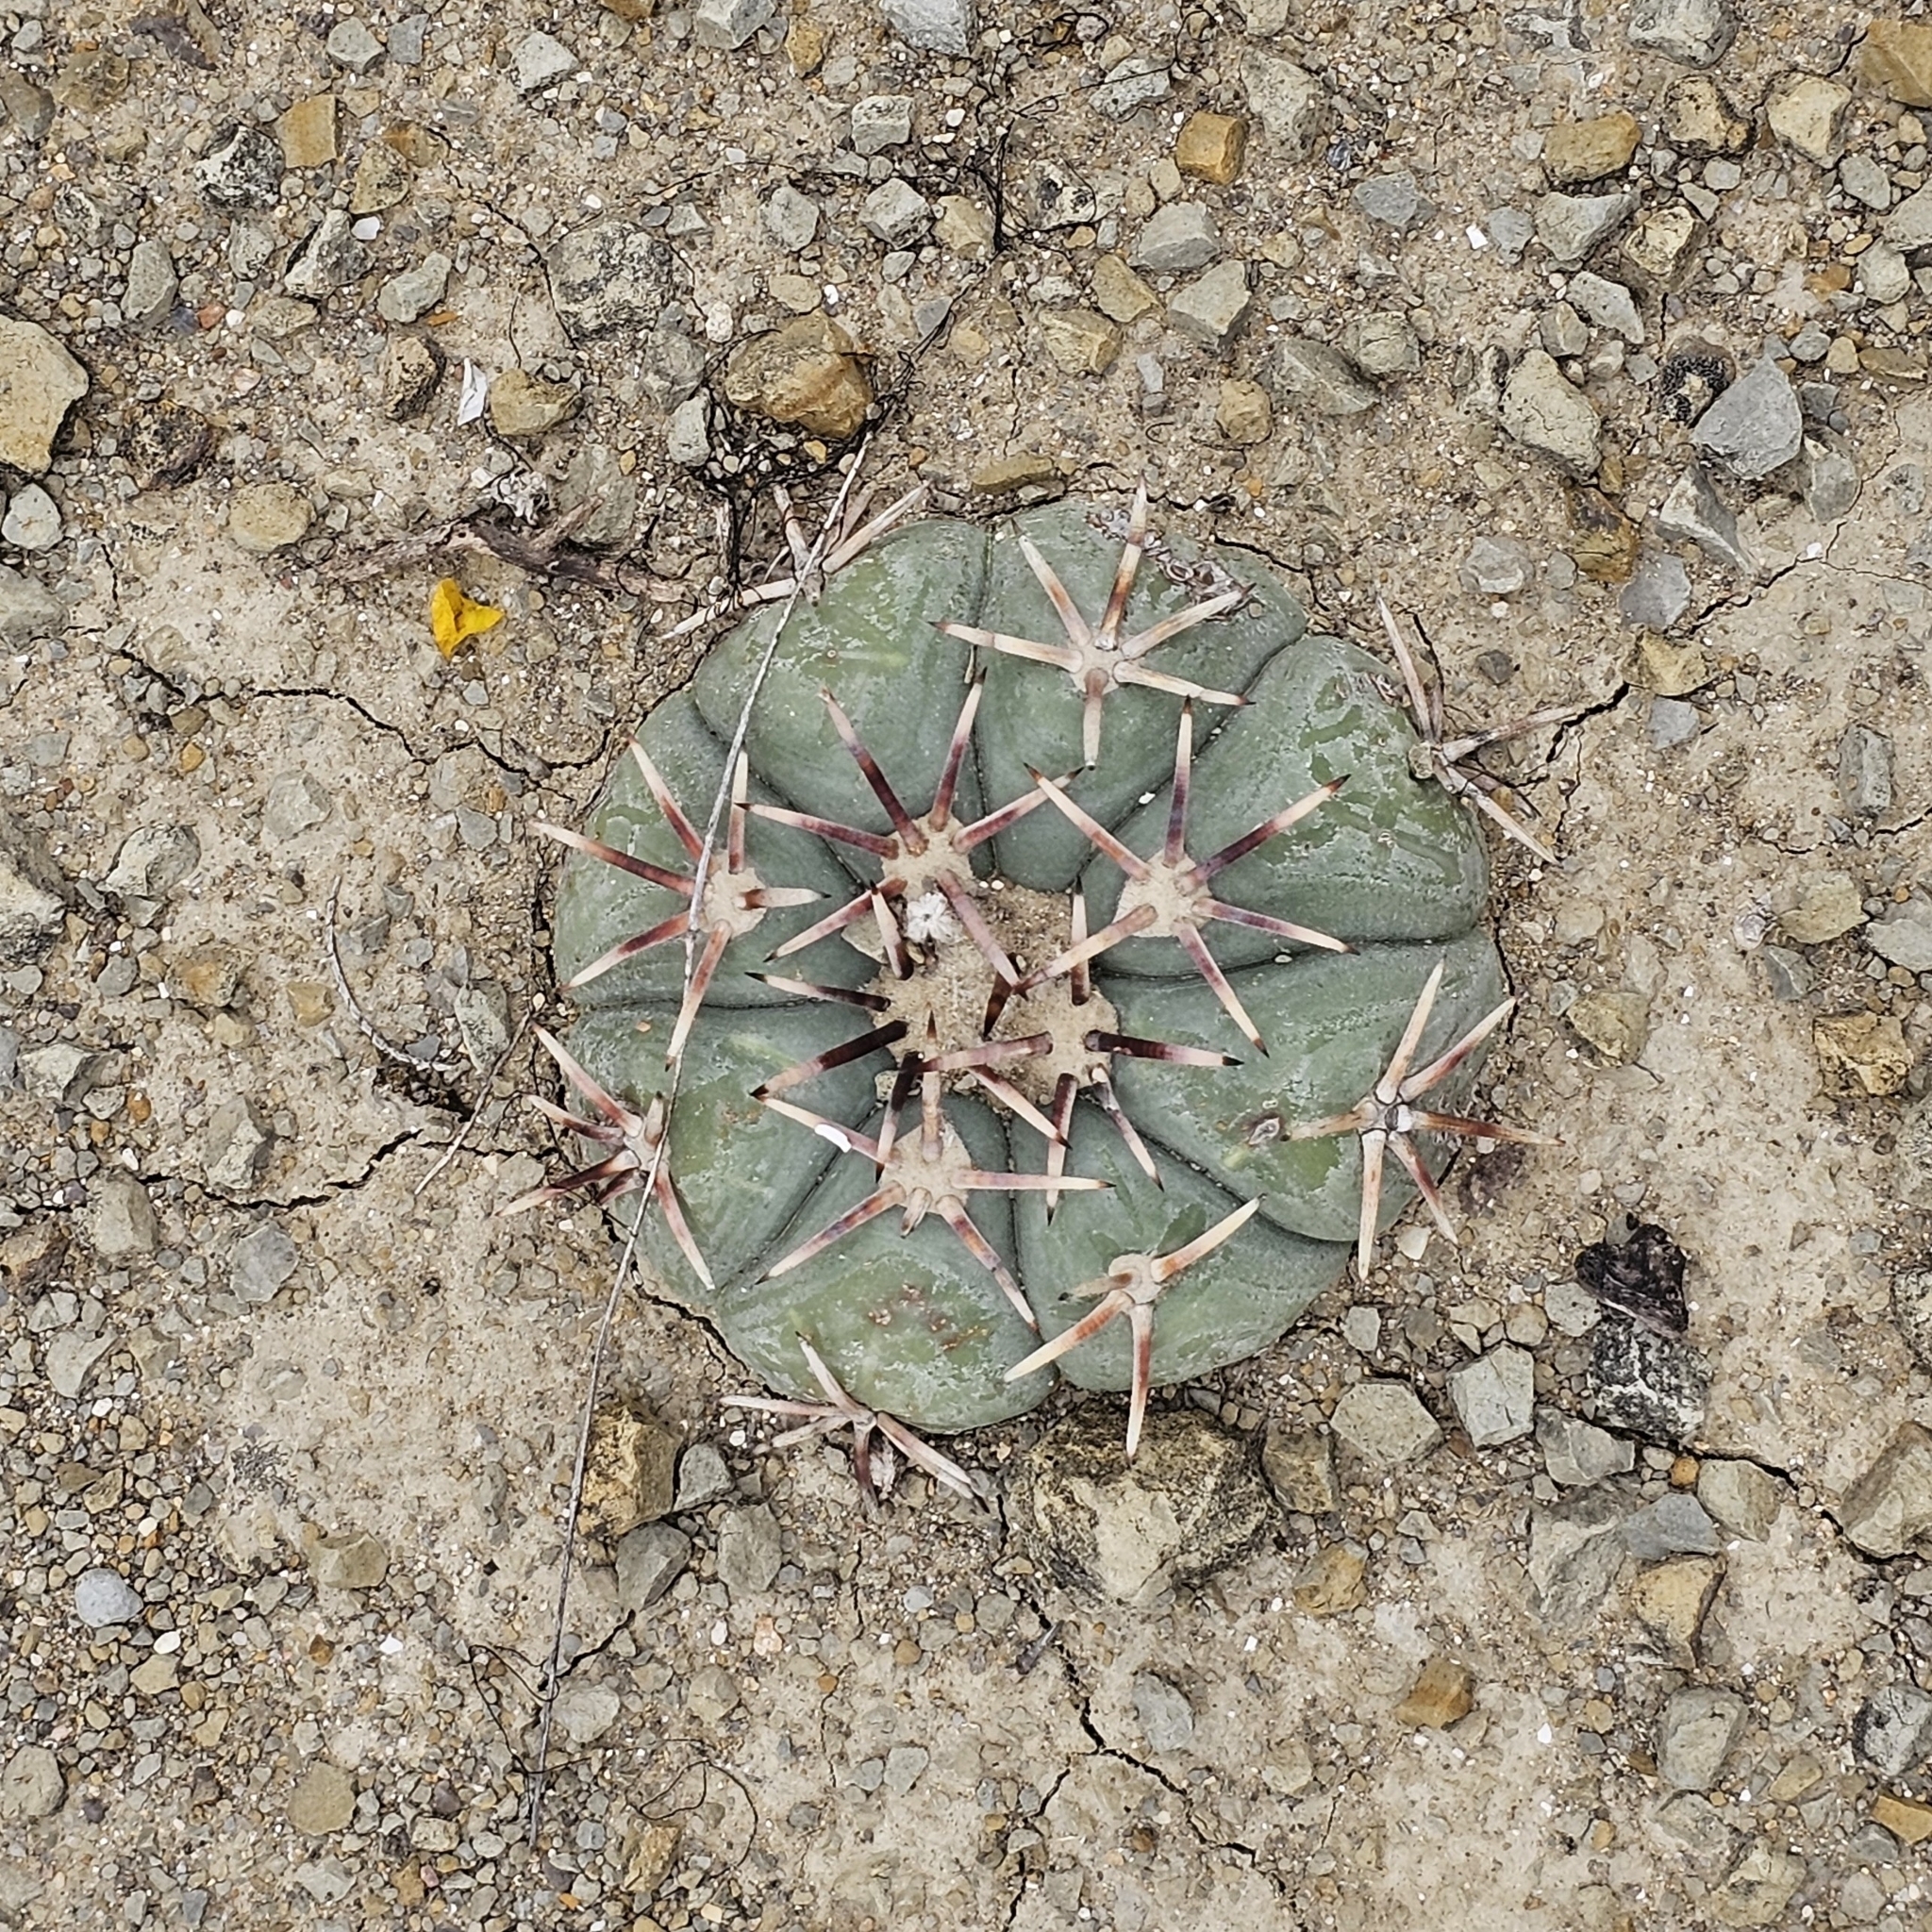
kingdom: Plantae
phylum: Tracheophyta
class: Magnoliopsida
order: Caryophyllales
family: Cactaceae
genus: Echinocactus
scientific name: Echinocactus horizonthalonius
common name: Devilshead
